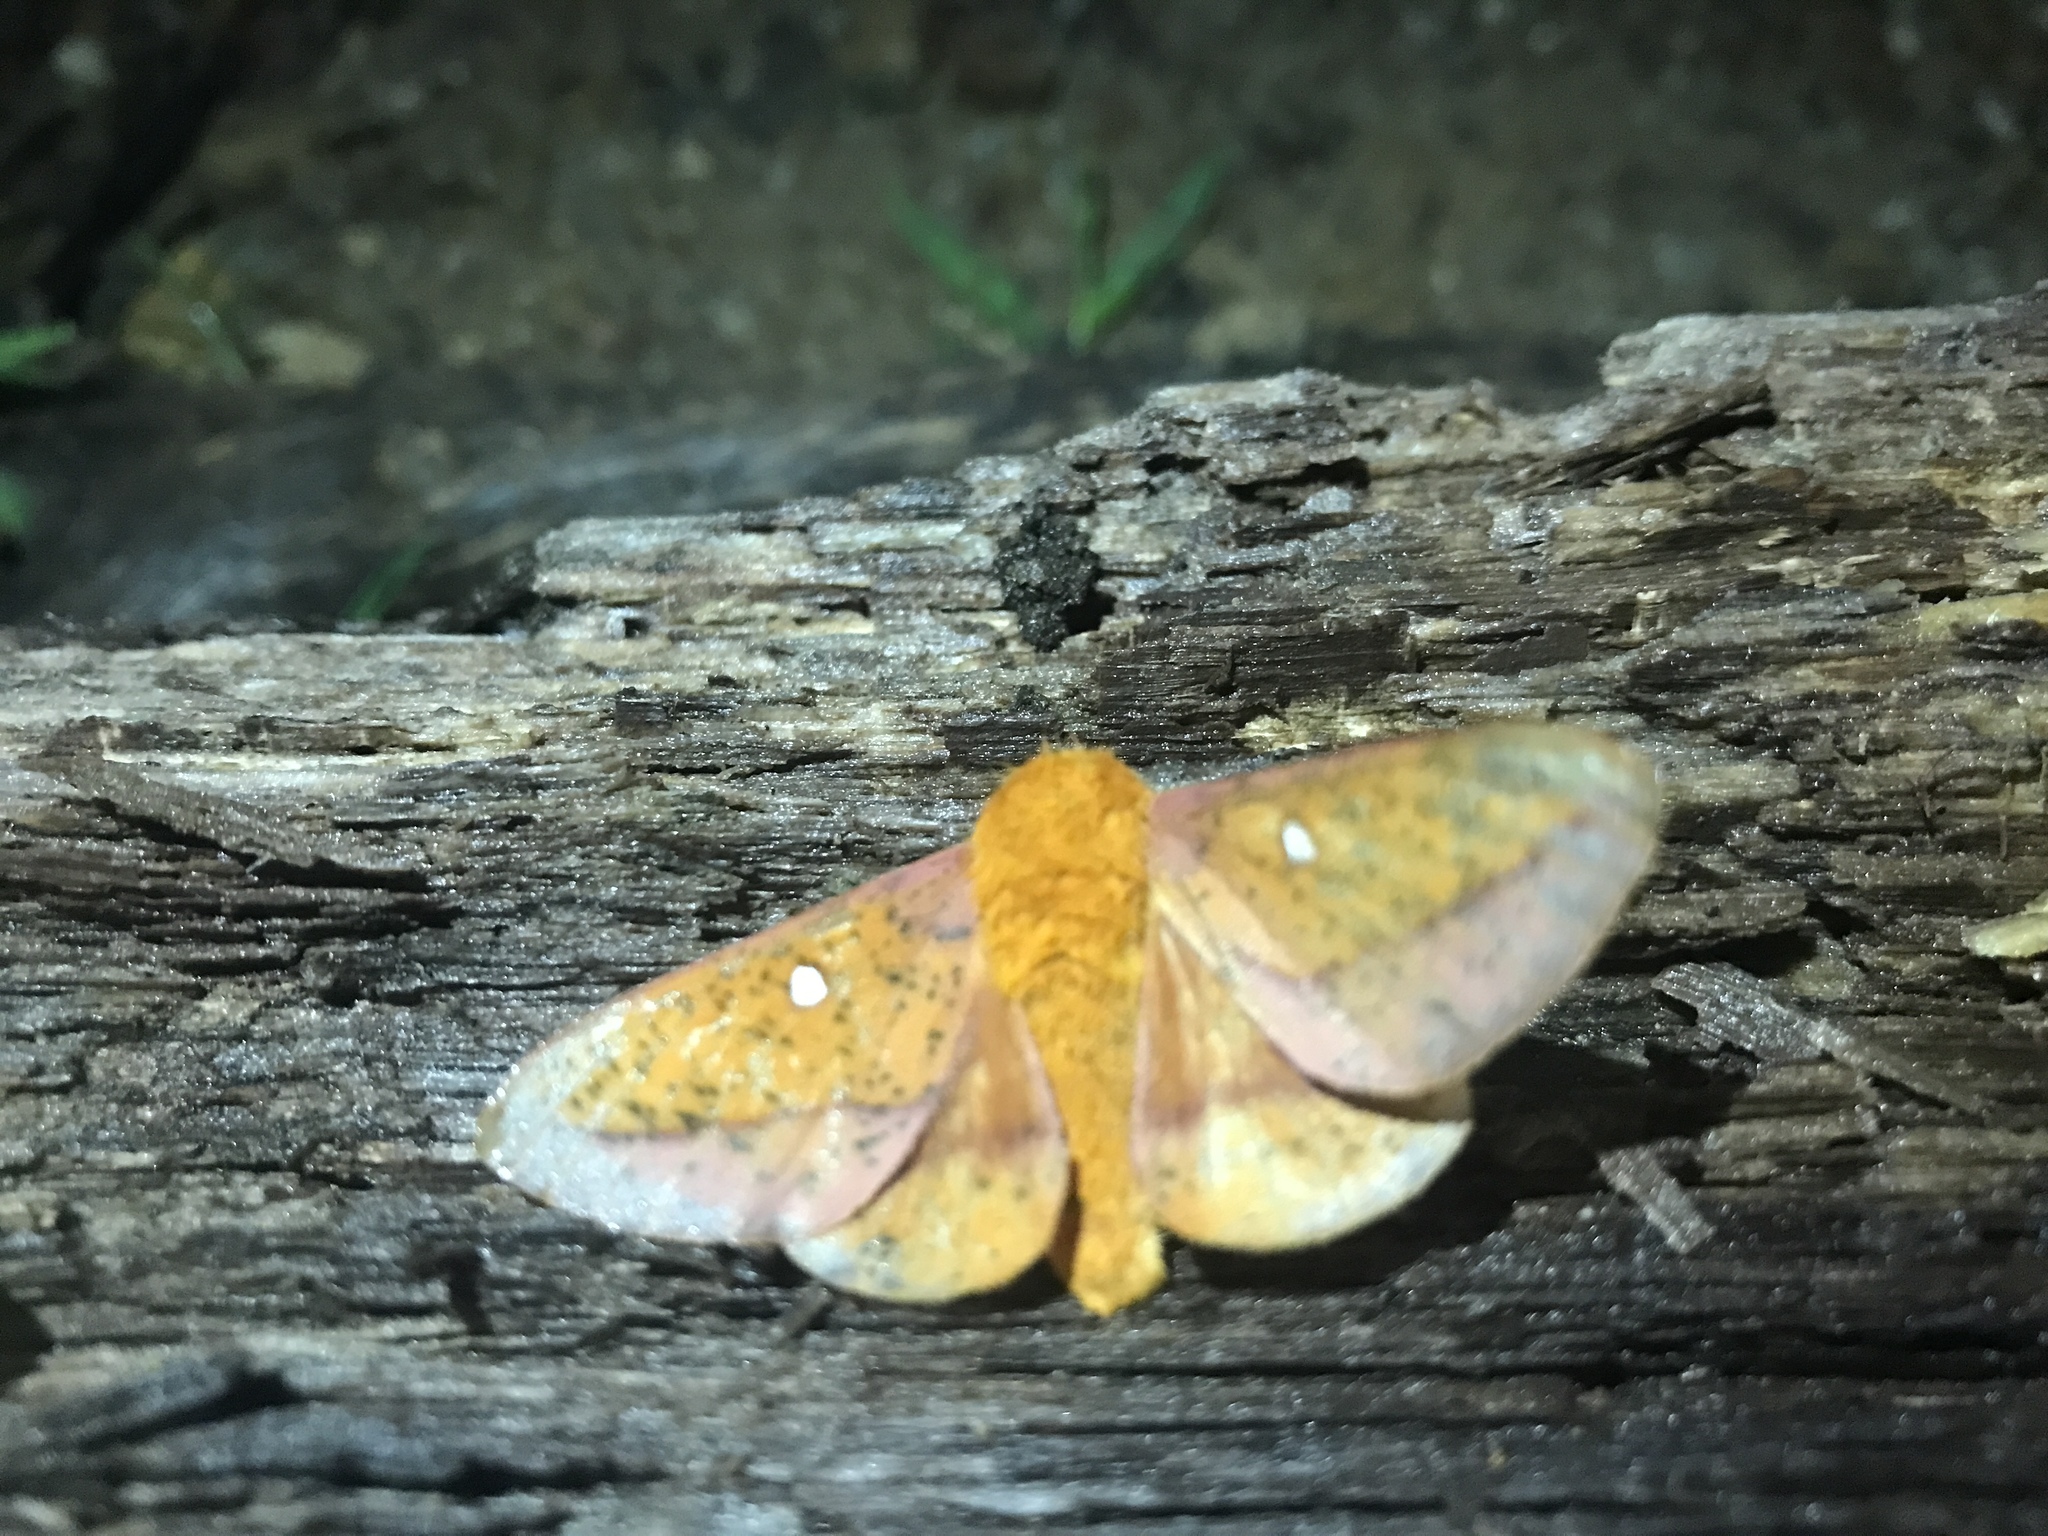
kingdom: Animalia
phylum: Arthropoda
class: Insecta
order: Lepidoptera
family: Saturniidae
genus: Anisota
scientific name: Anisota stigma
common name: Spiny oakworm moth
